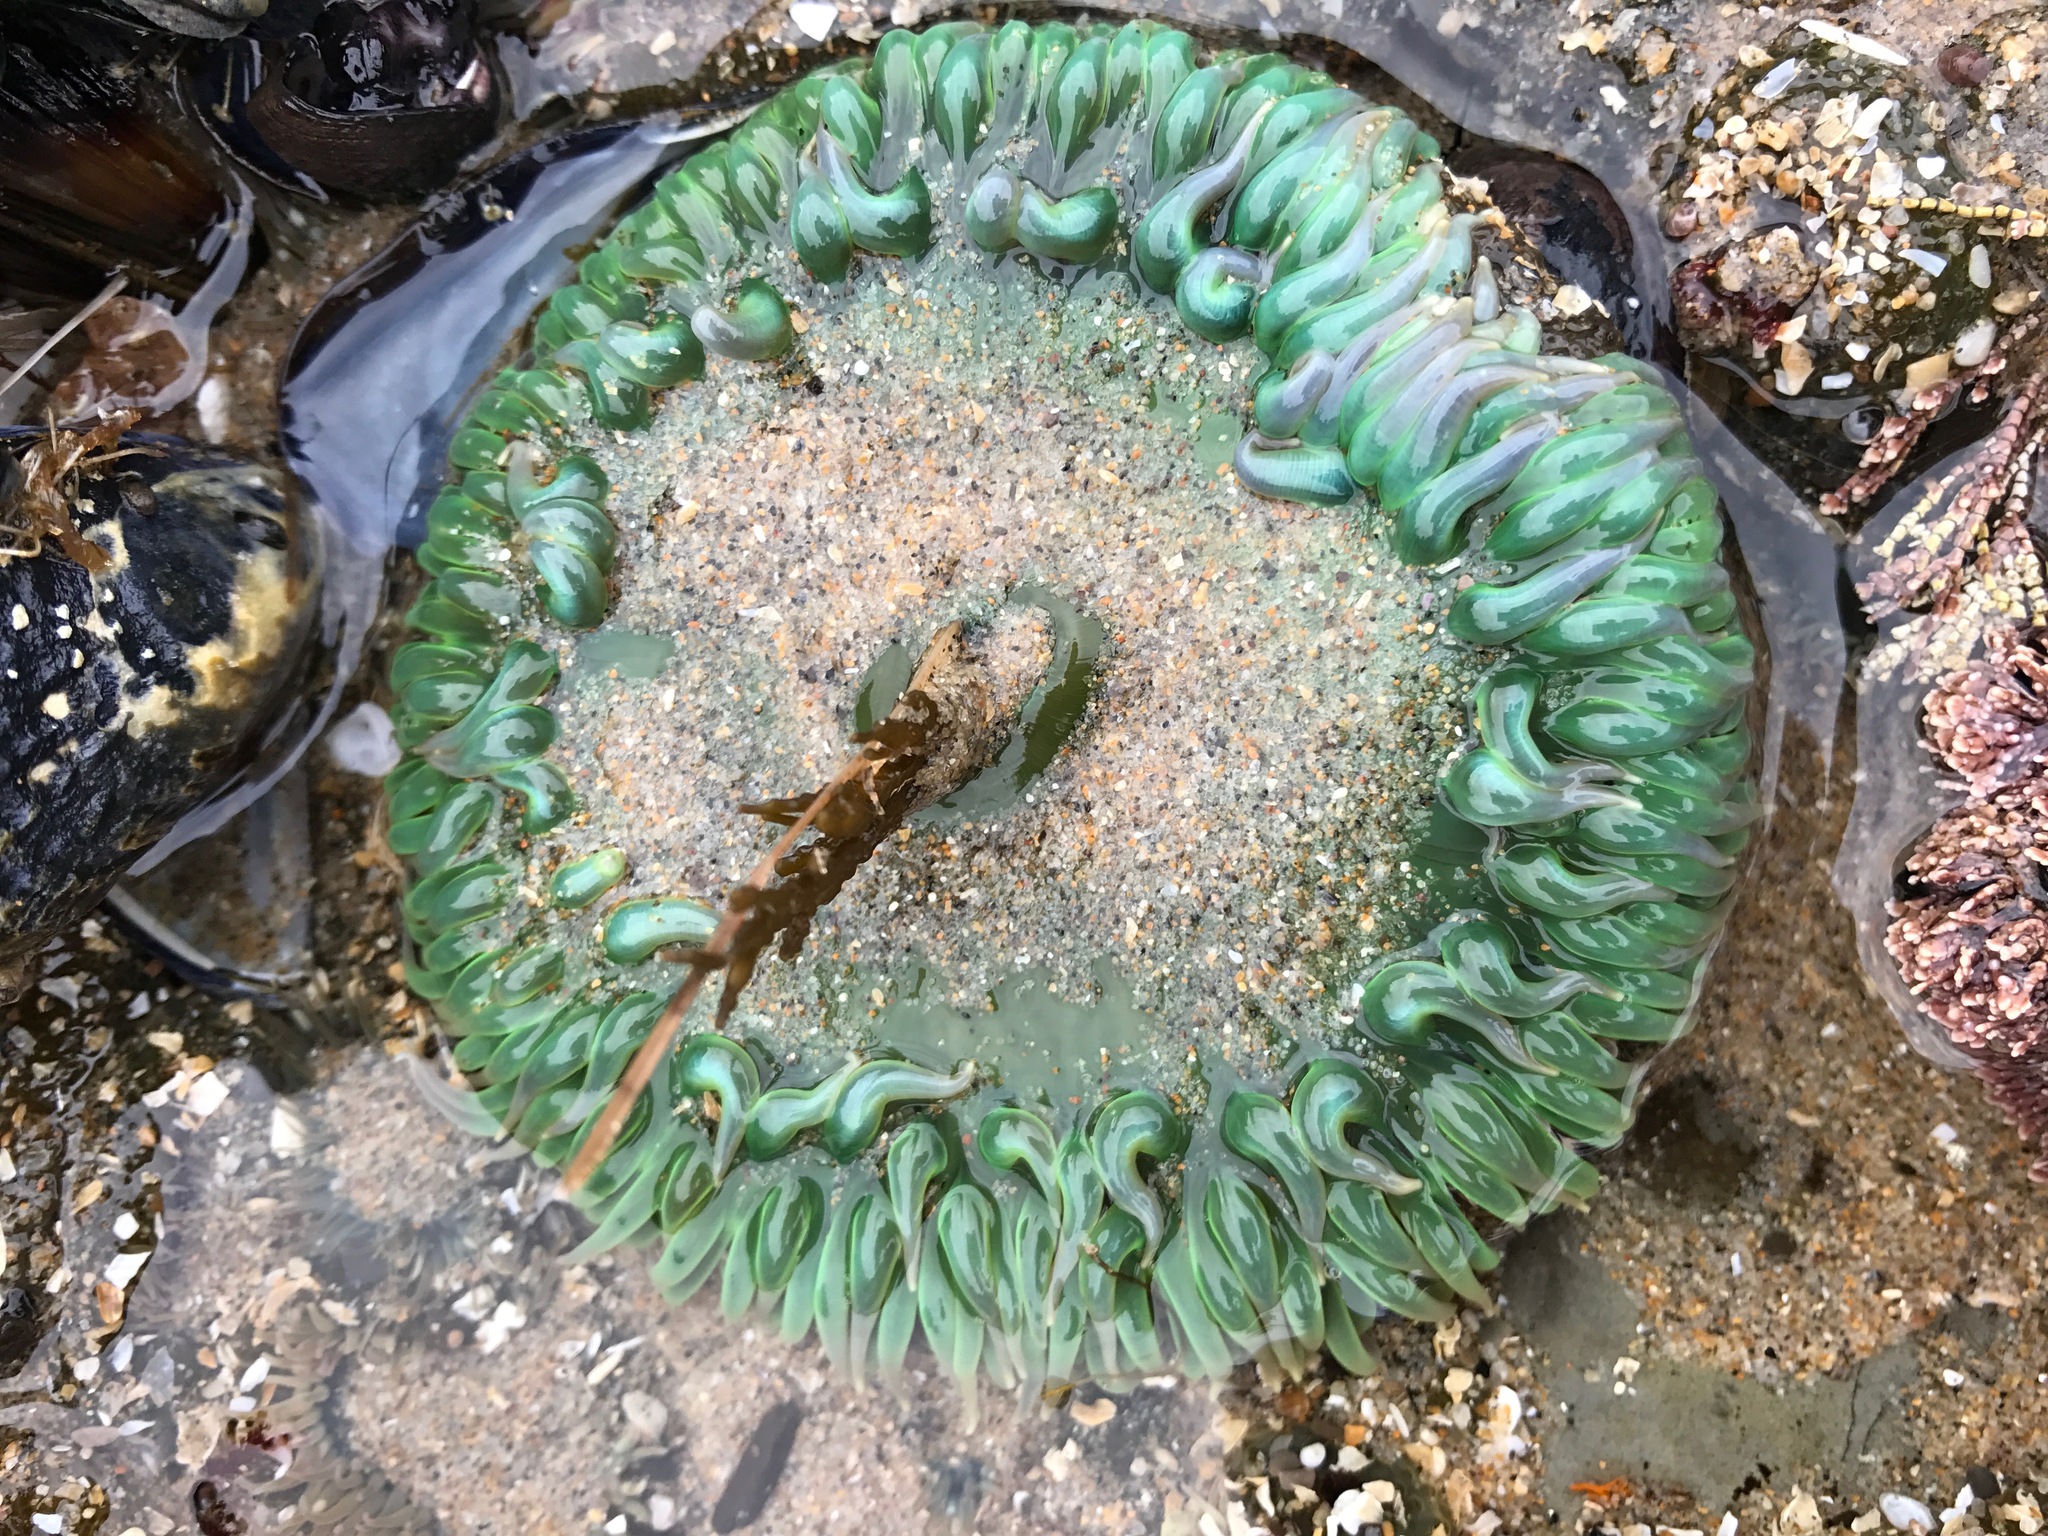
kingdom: Animalia
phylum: Cnidaria
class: Anthozoa
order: Actiniaria
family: Actiniidae
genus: Anthopleura
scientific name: Anthopleura xanthogrammica
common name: Giant green anemone
